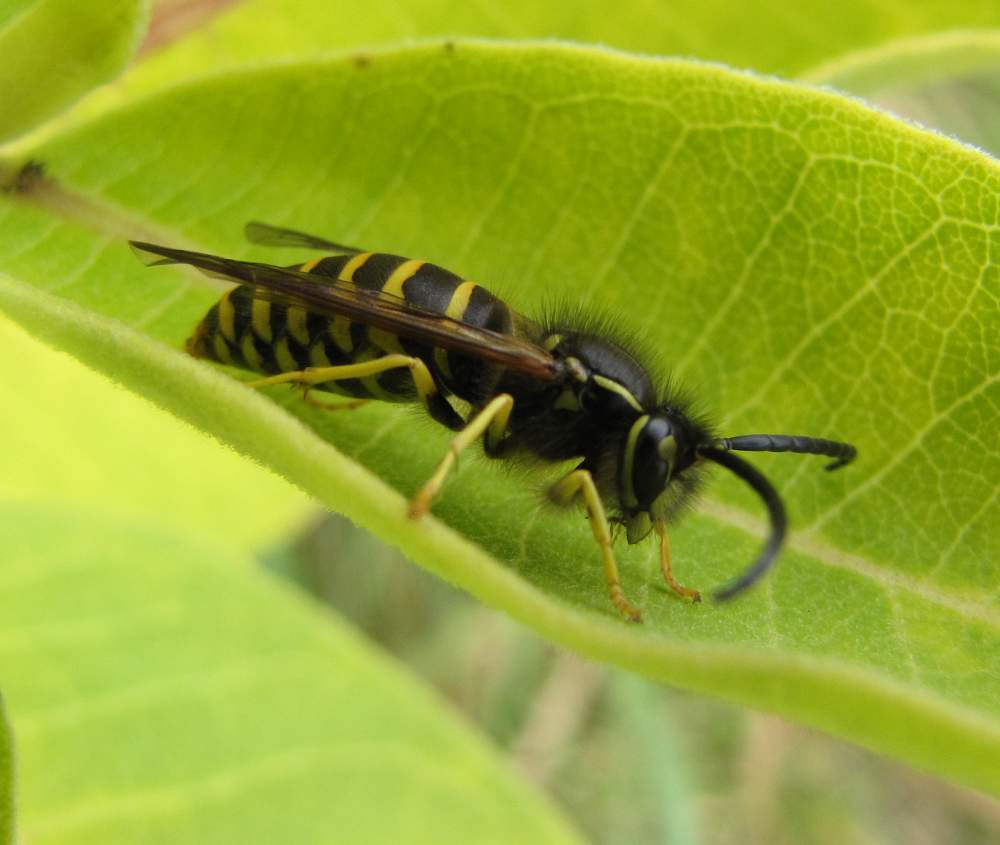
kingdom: Animalia
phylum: Arthropoda
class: Insecta
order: Hymenoptera
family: Vespidae
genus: Vespula
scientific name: Vespula alascensis
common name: Alaska yellowjacket
